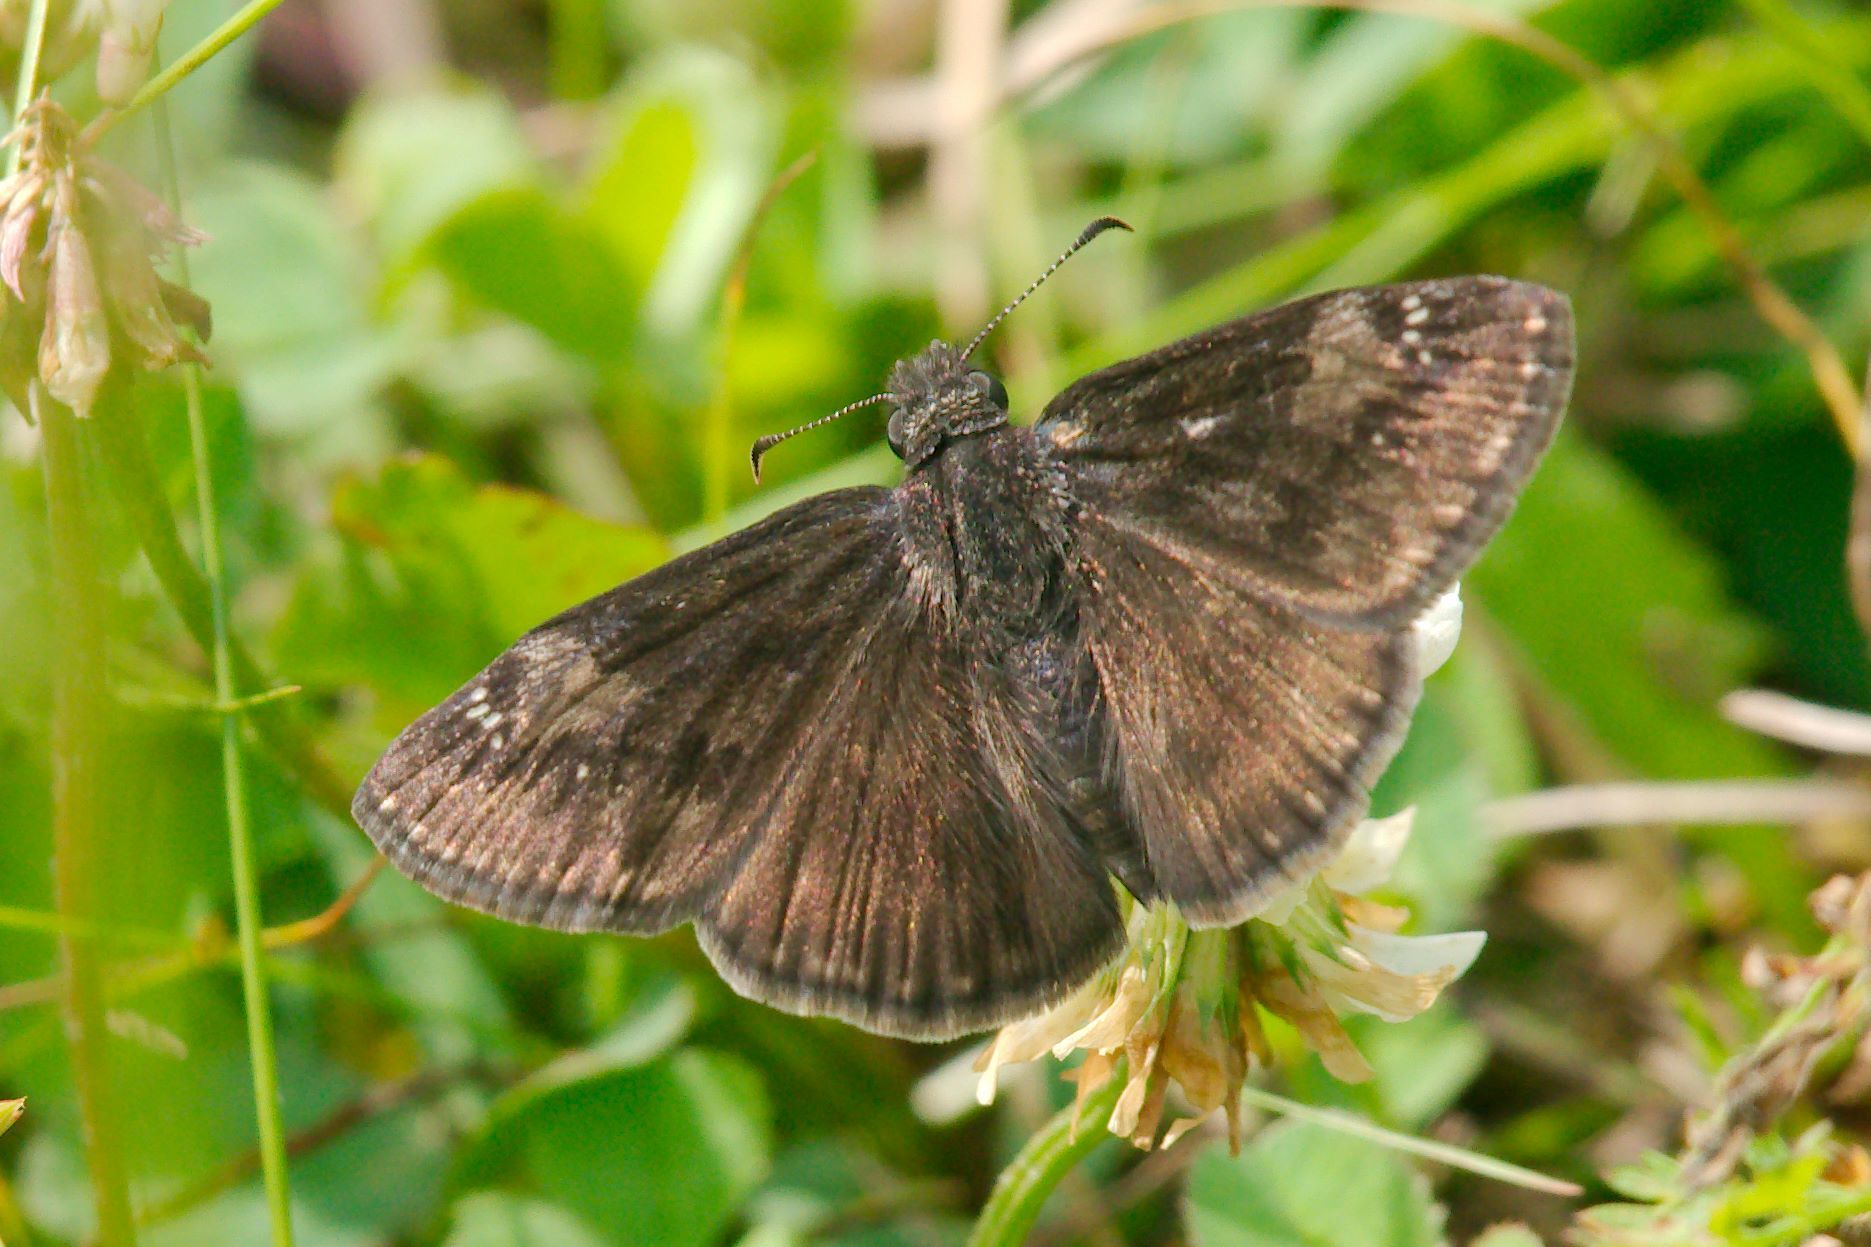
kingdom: Animalia
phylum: Arthropoda
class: Insecta
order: Lepidoptera
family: Hesperiidae
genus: Erynnis
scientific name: Erynnis baptisiae
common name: Wild indigo duskywing
